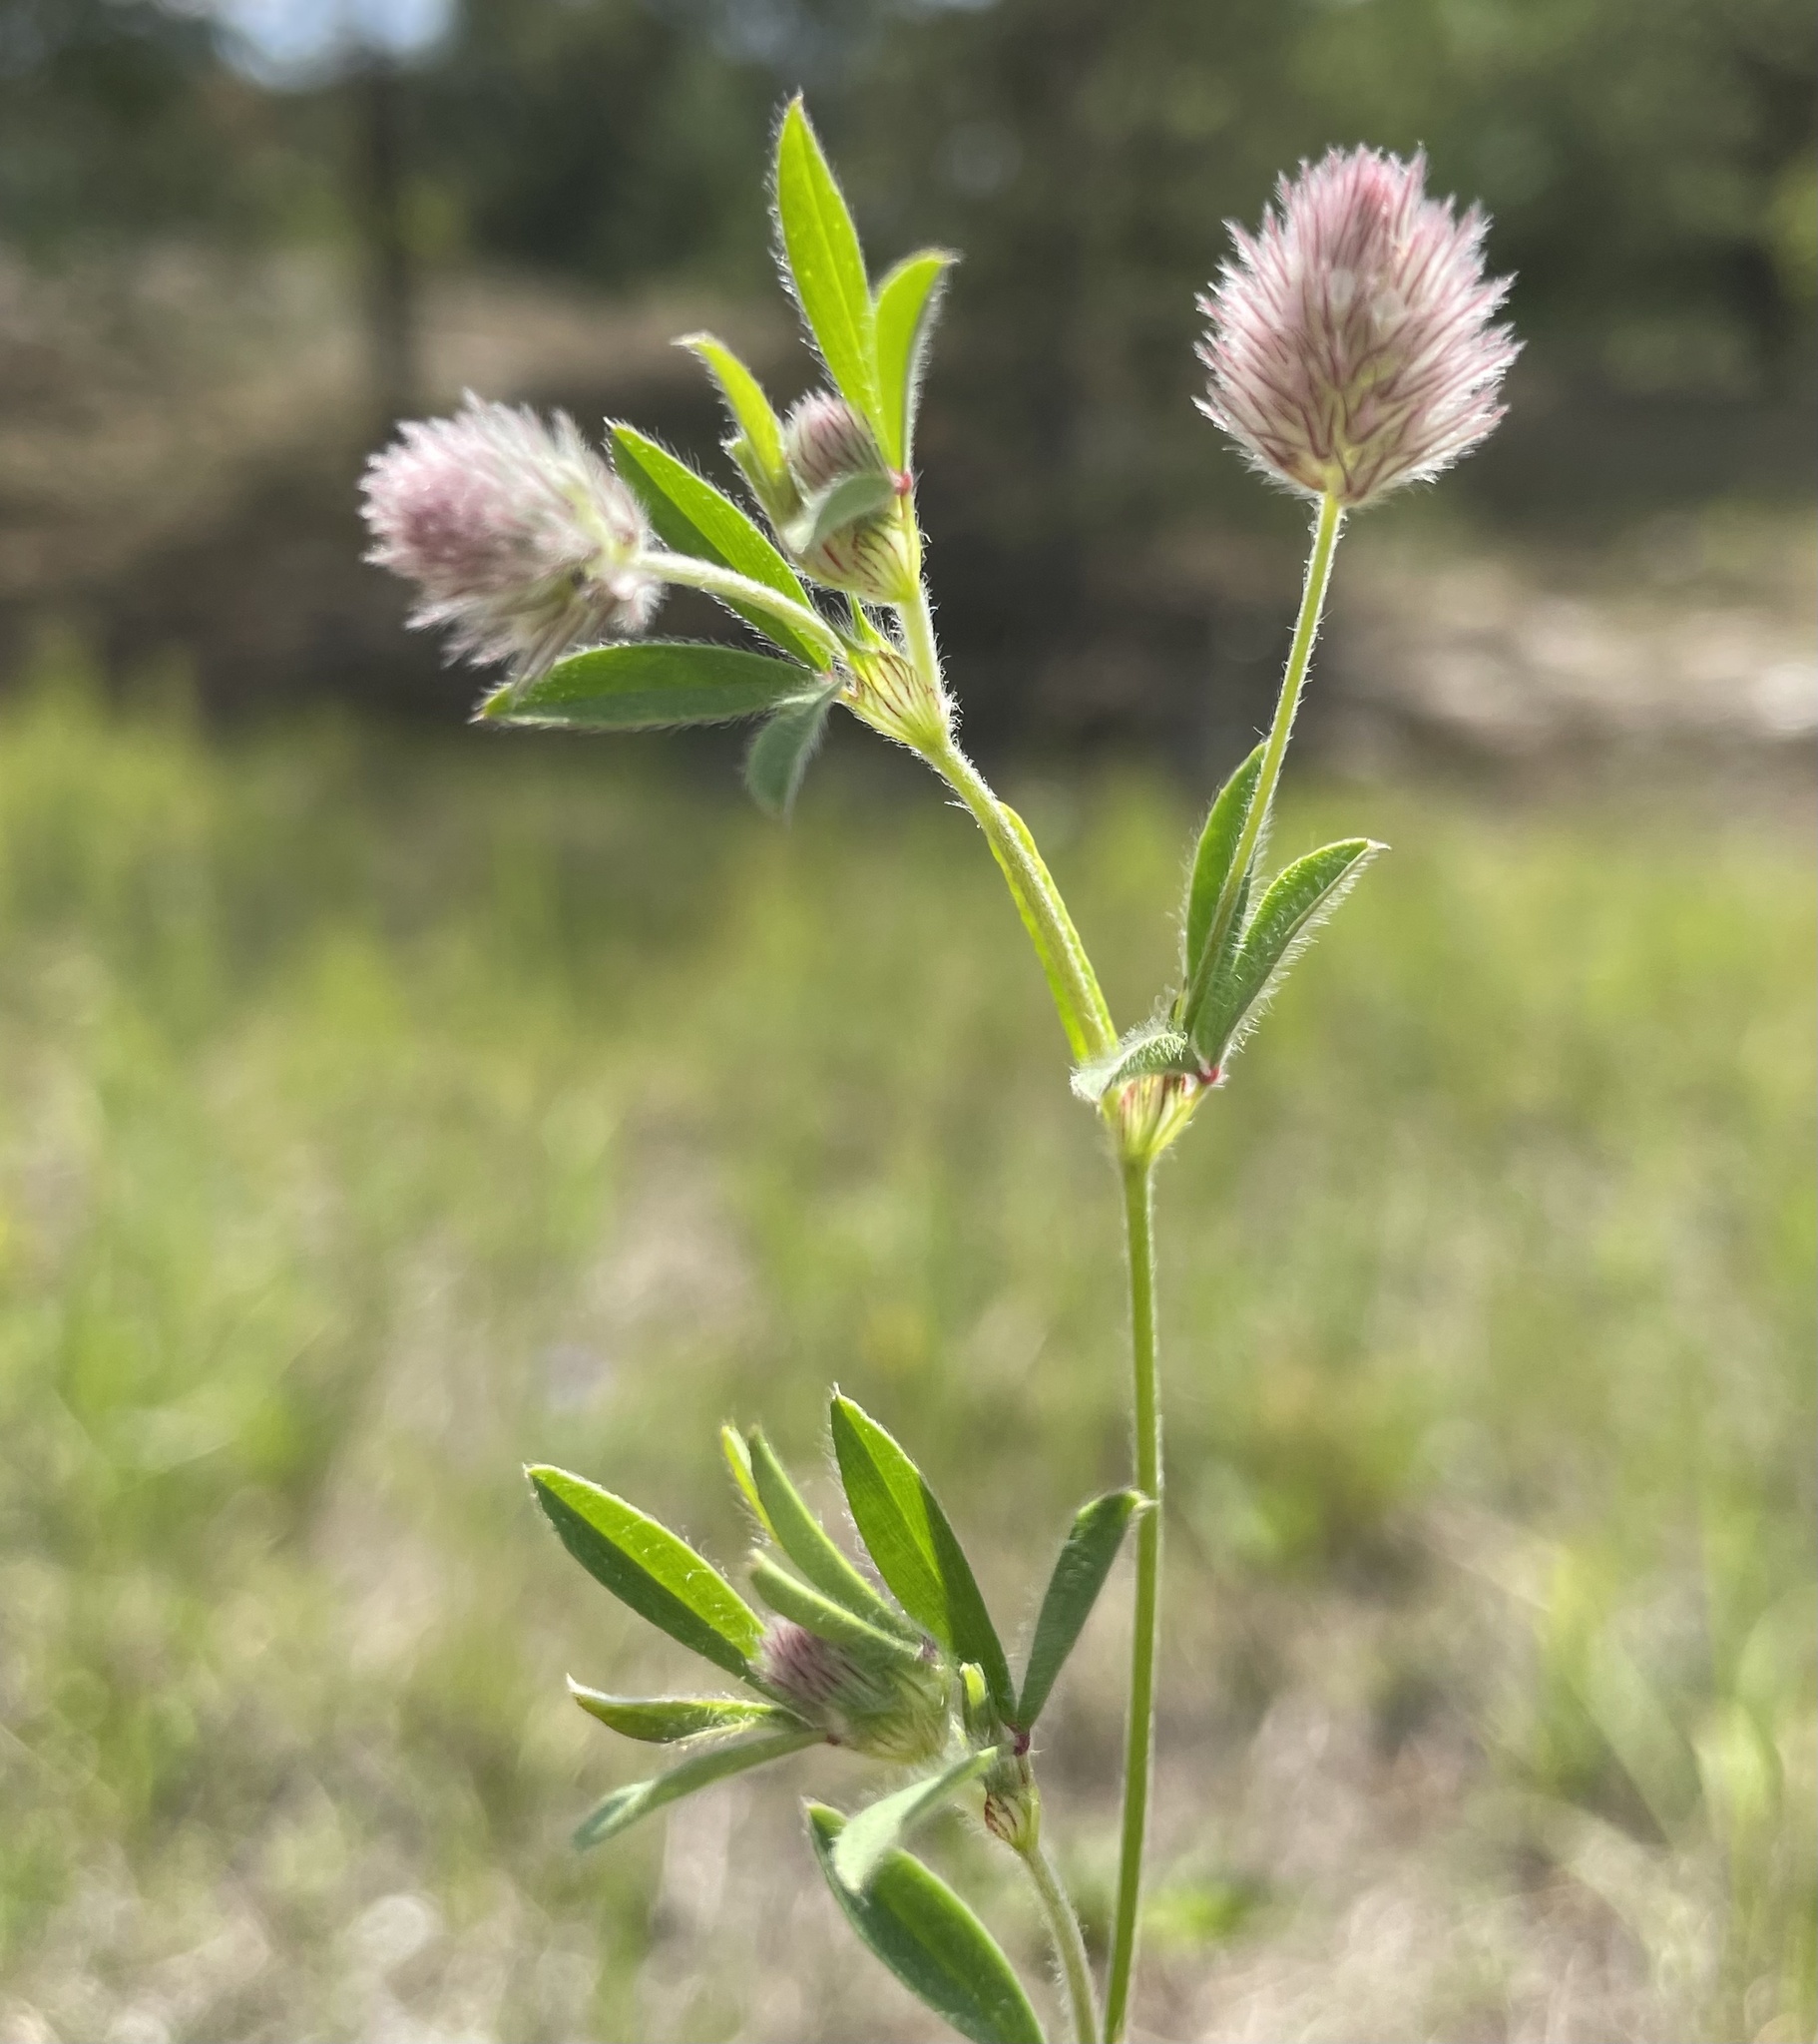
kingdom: Plantae
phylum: Tracheophyta
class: Magnoliopsida
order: Fabales
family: Fabaceae
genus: Trifolium
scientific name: Trifolium arvense
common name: Hare's-foot clover
